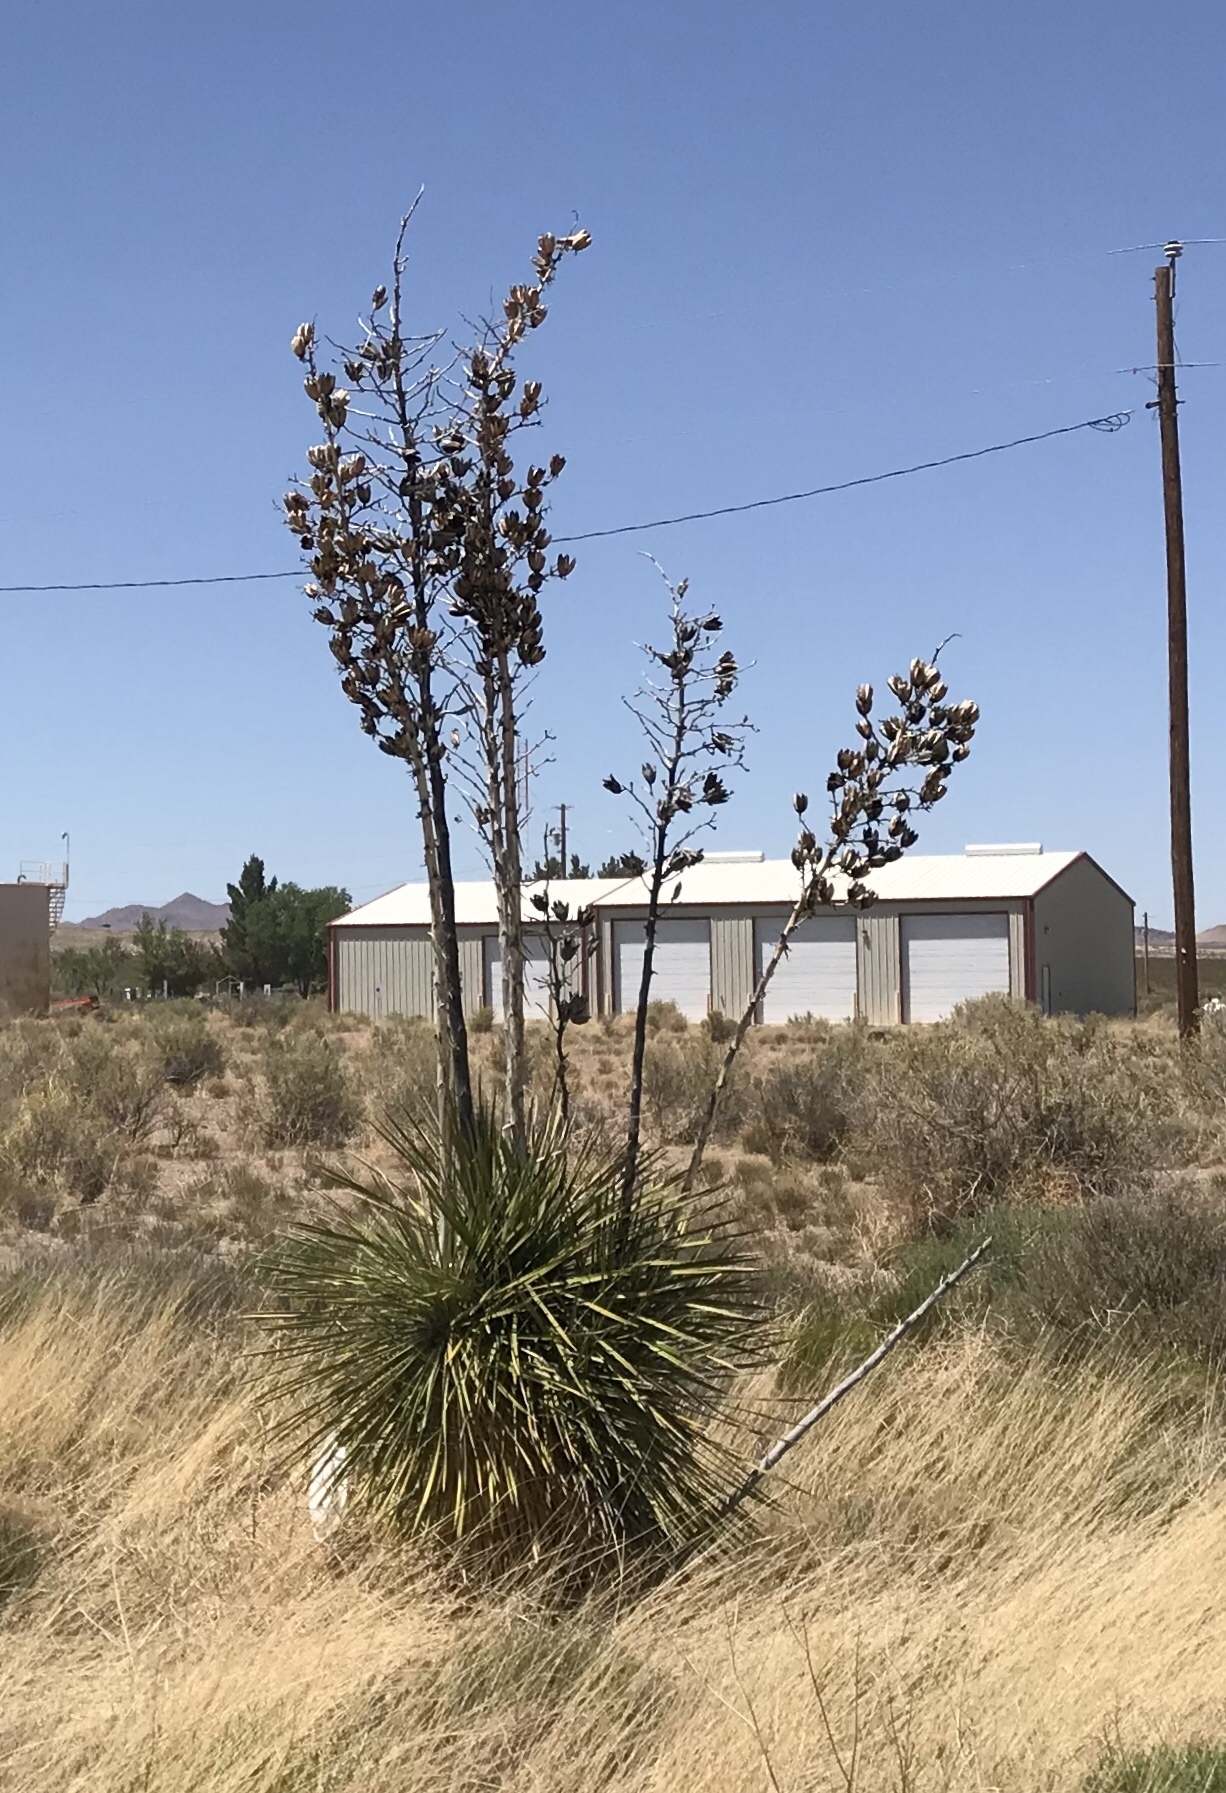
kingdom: Plantae
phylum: Tracheophyta
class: Liliopsida
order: Asparagales
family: Asparagaceae
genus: Yucca
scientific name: Yucca elata
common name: Palmella
